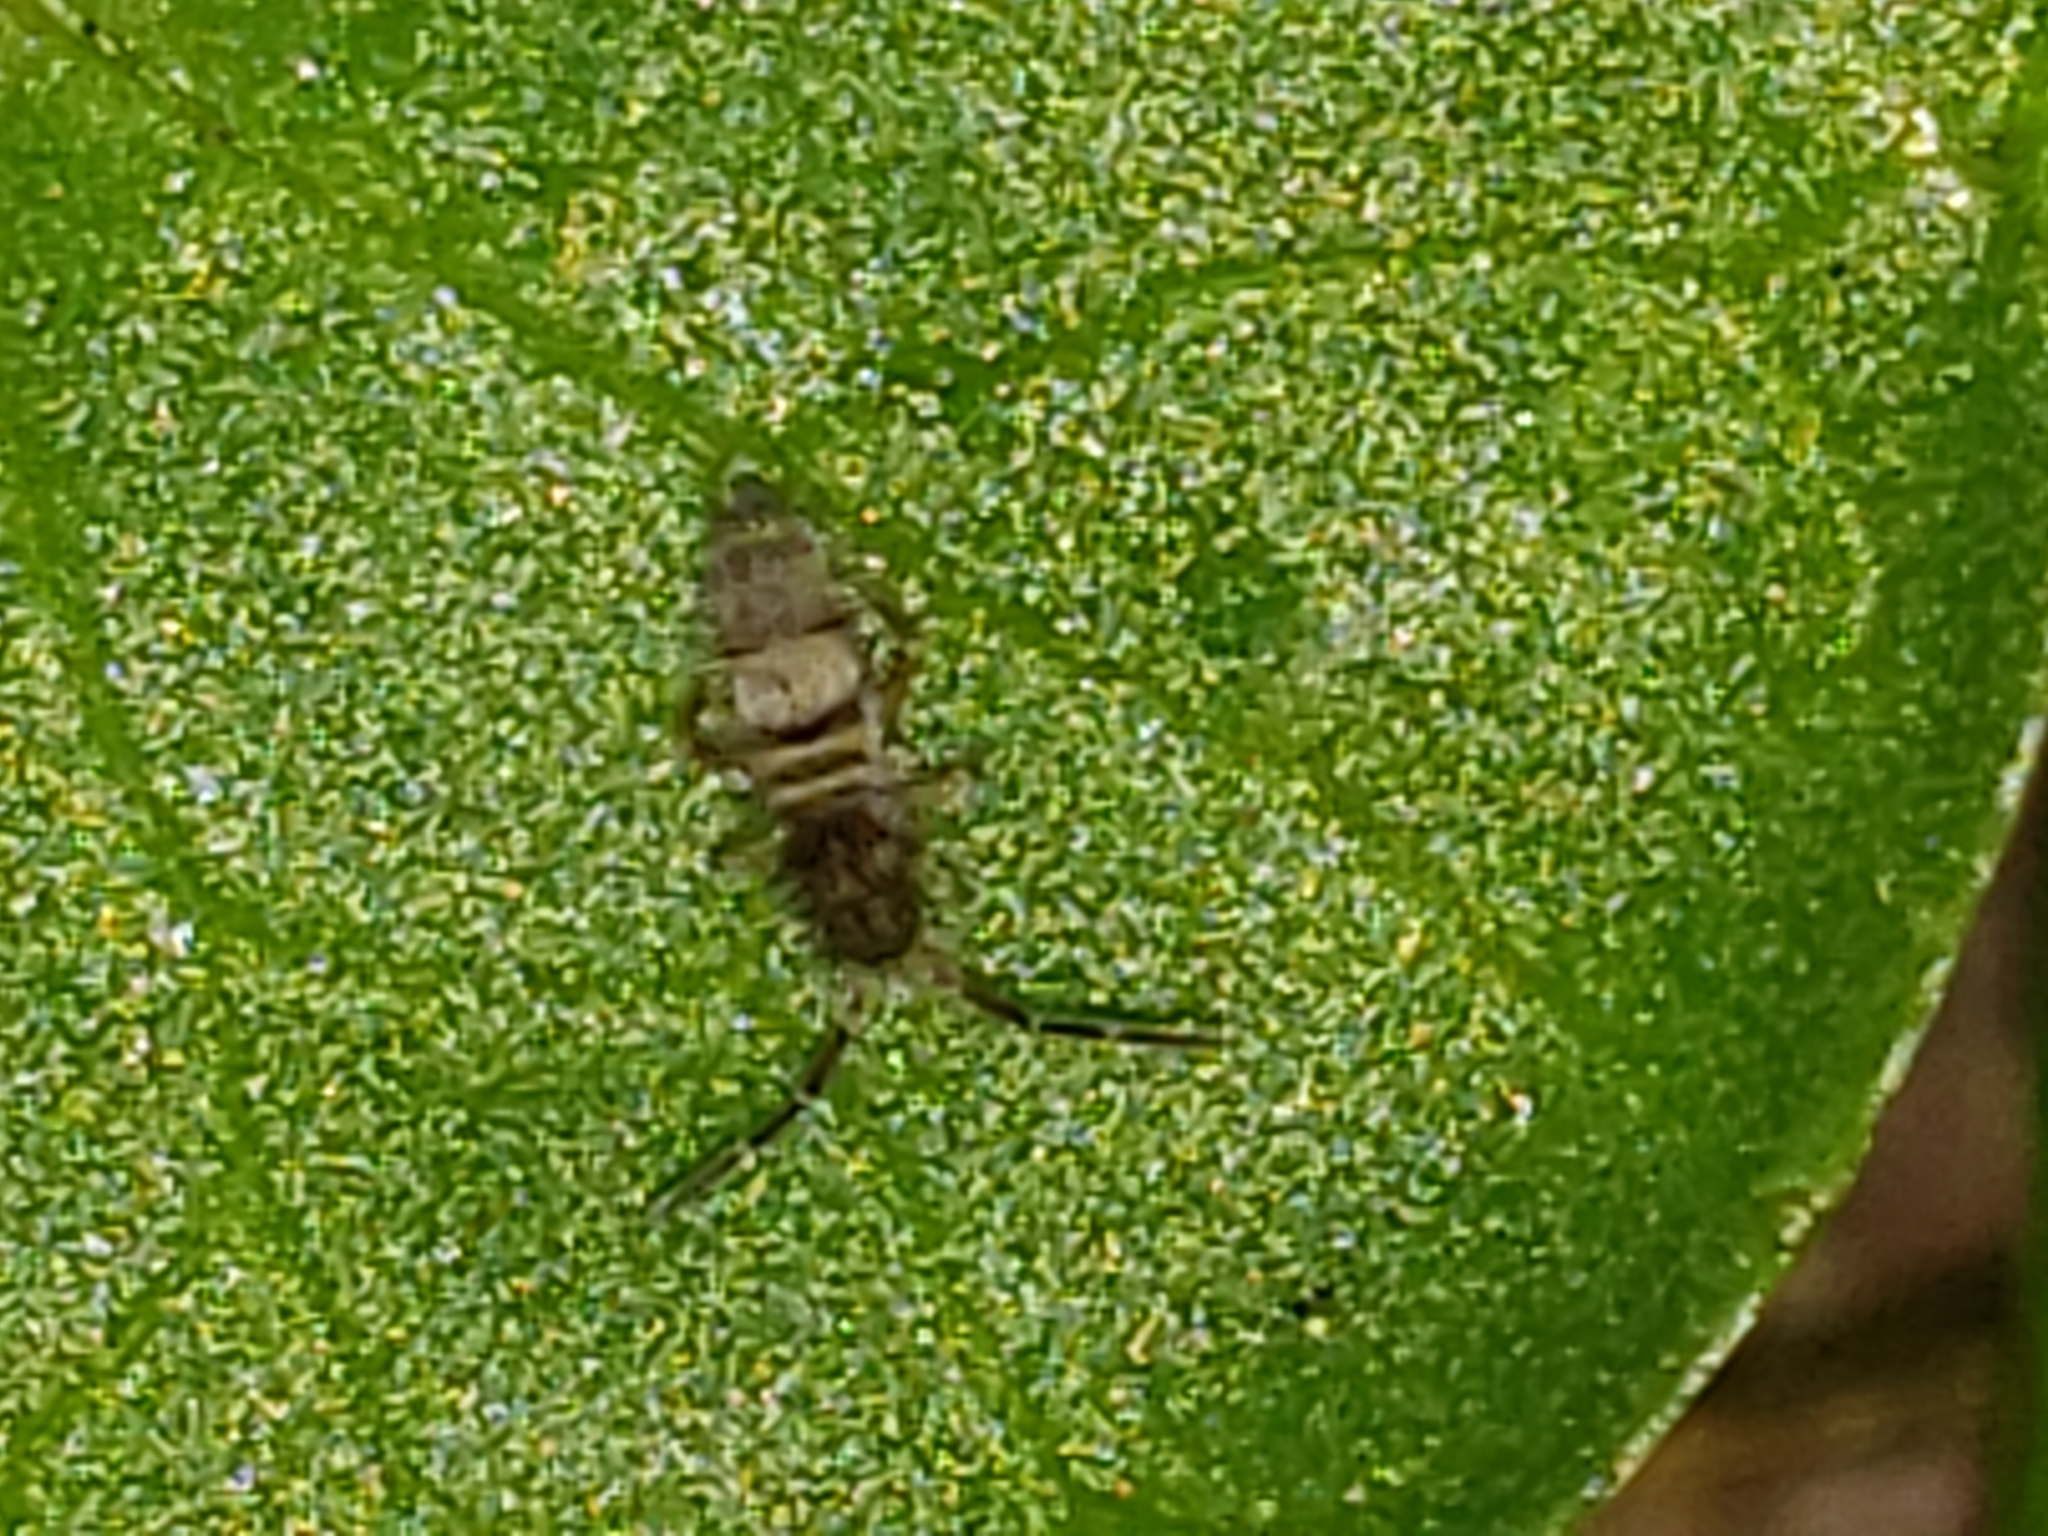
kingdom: Animalia
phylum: Arthropoda
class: Collembola
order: Entomobryomorpha
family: Entomobryidae
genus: Homidia
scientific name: Homidia sauteri
